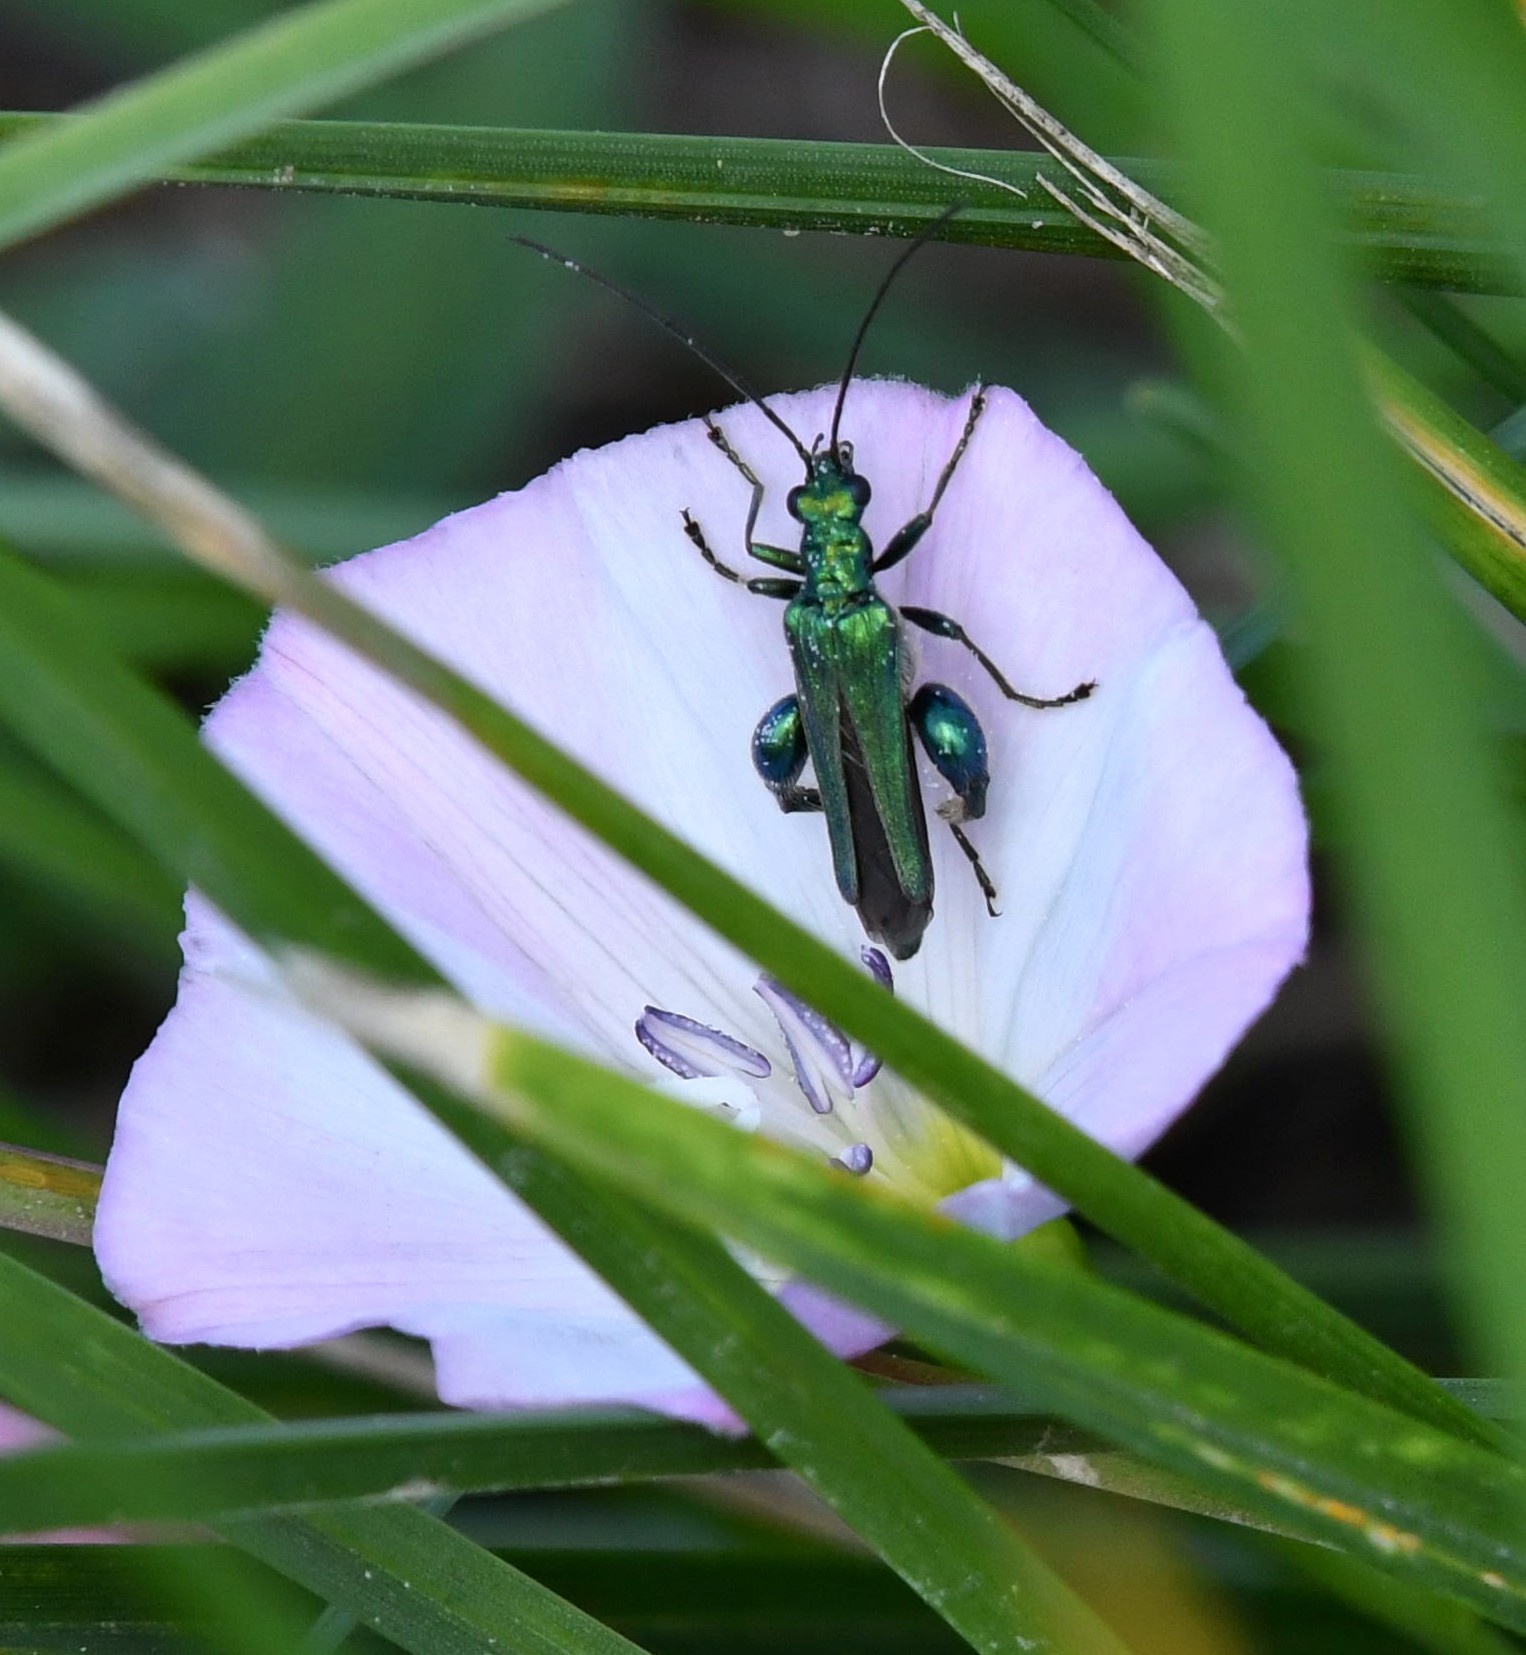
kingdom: Animalia
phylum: Arthropoda
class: Insecta
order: Coleoptera
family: Oedemeridae
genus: Oedemera
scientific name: Oedemera nobilis
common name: Swollen-thighed beetle
